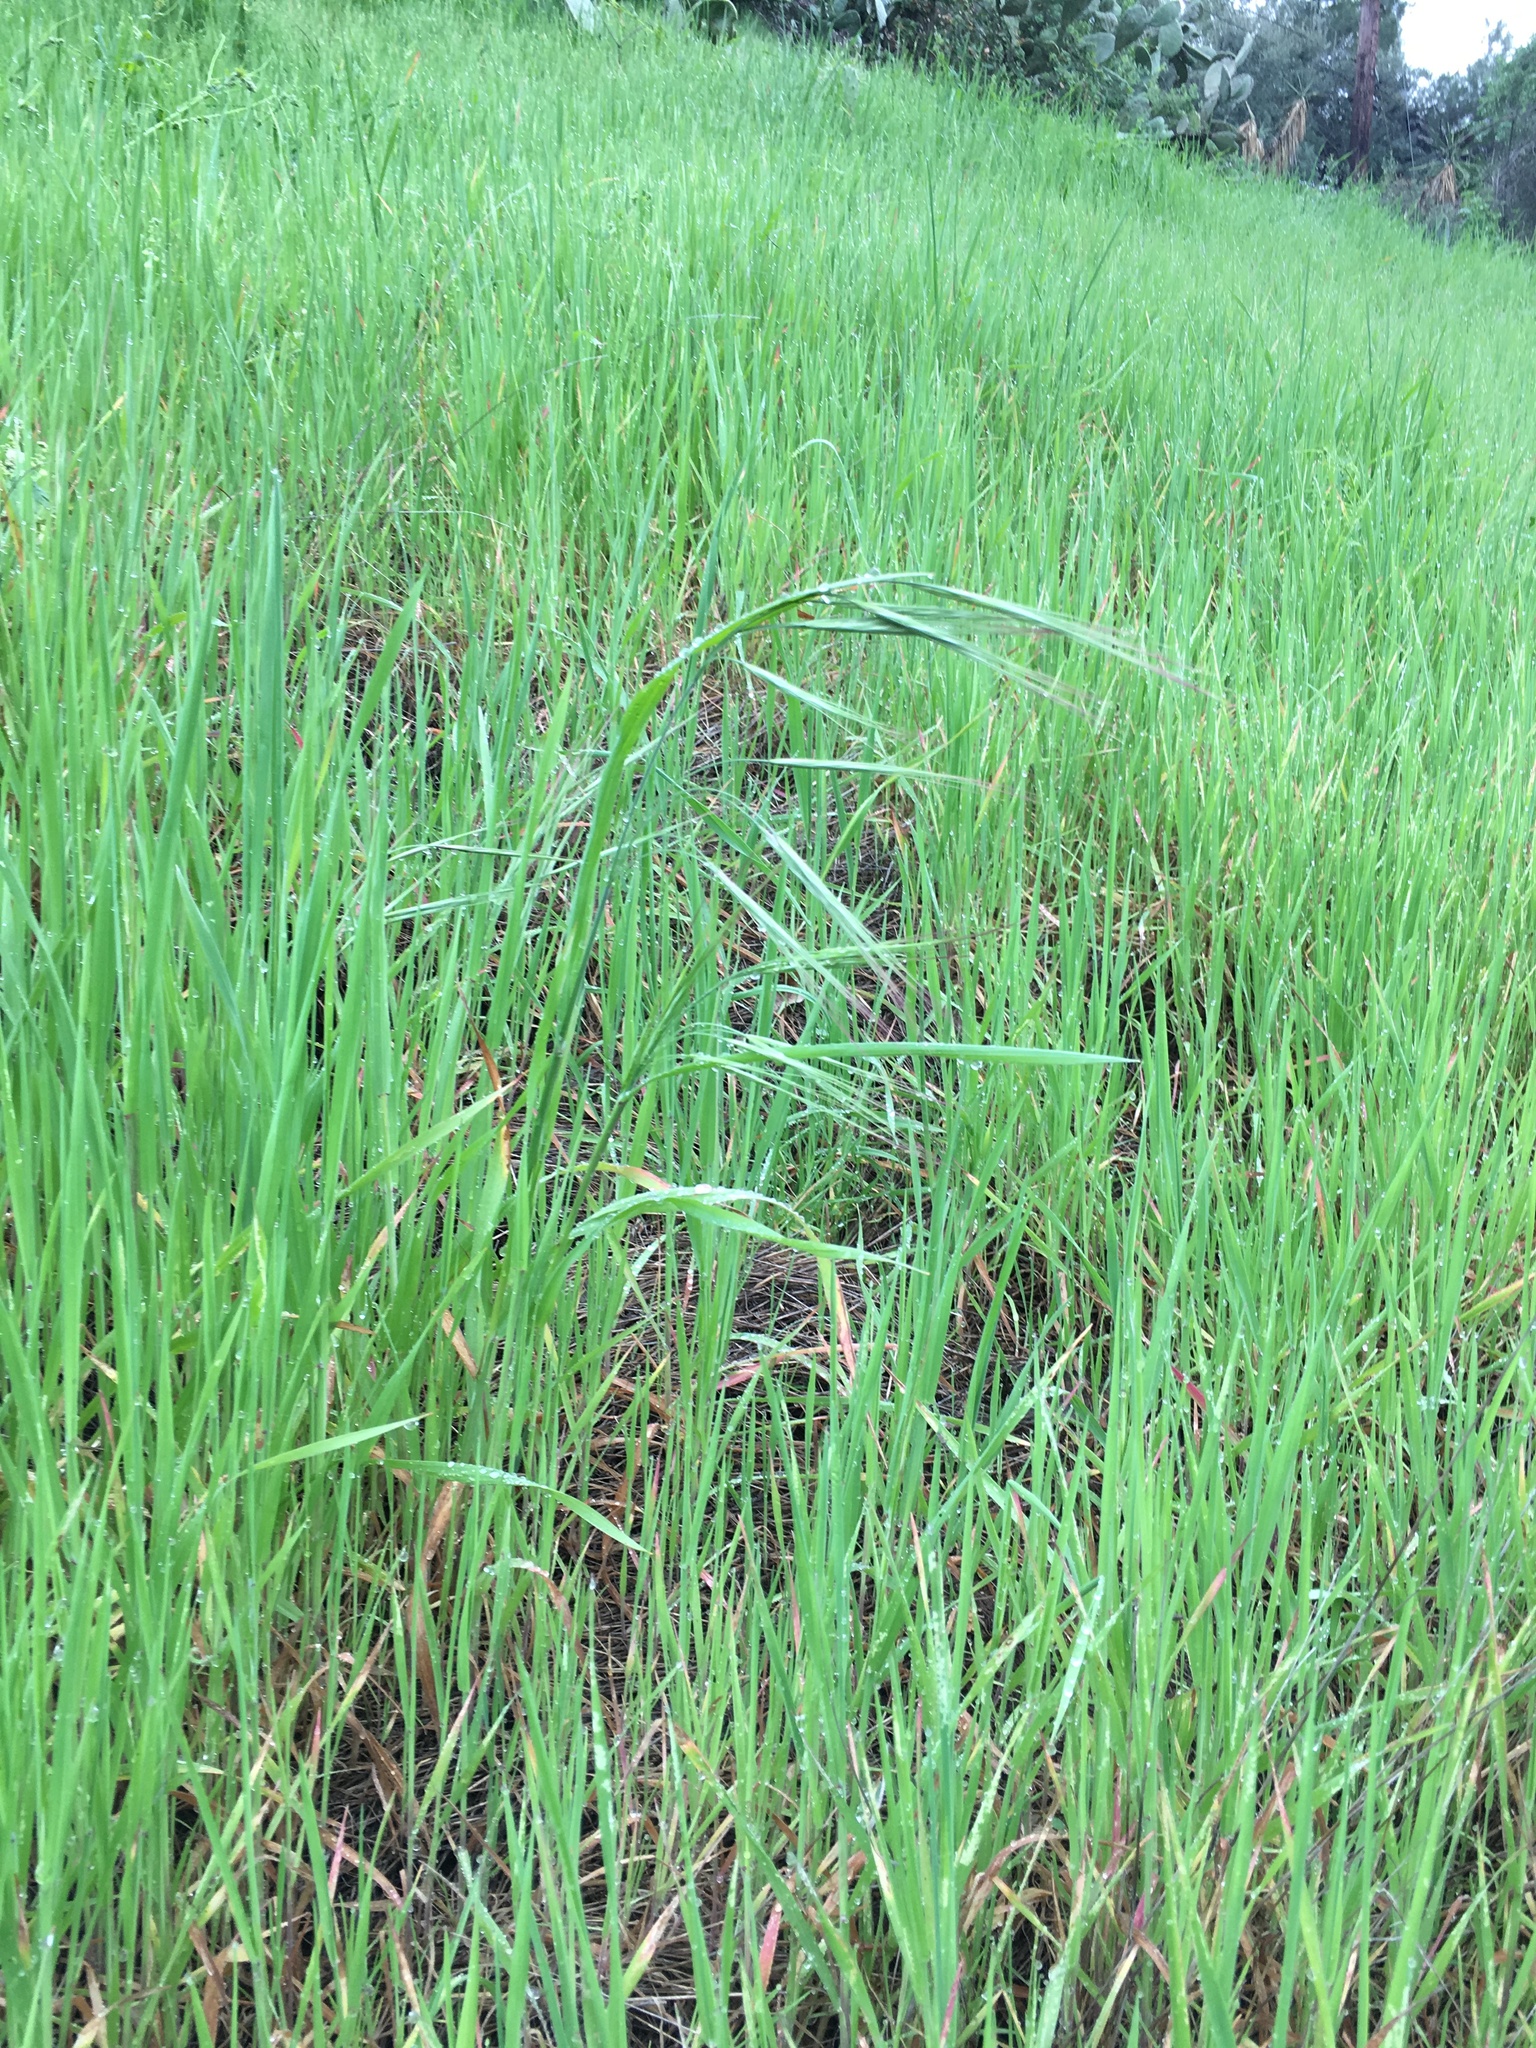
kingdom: Plantae
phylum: Tracheophyta
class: Liliopsida
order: Poales
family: Poaceae
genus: Bromus
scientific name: Bromus diandrus
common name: Ripgut brome
